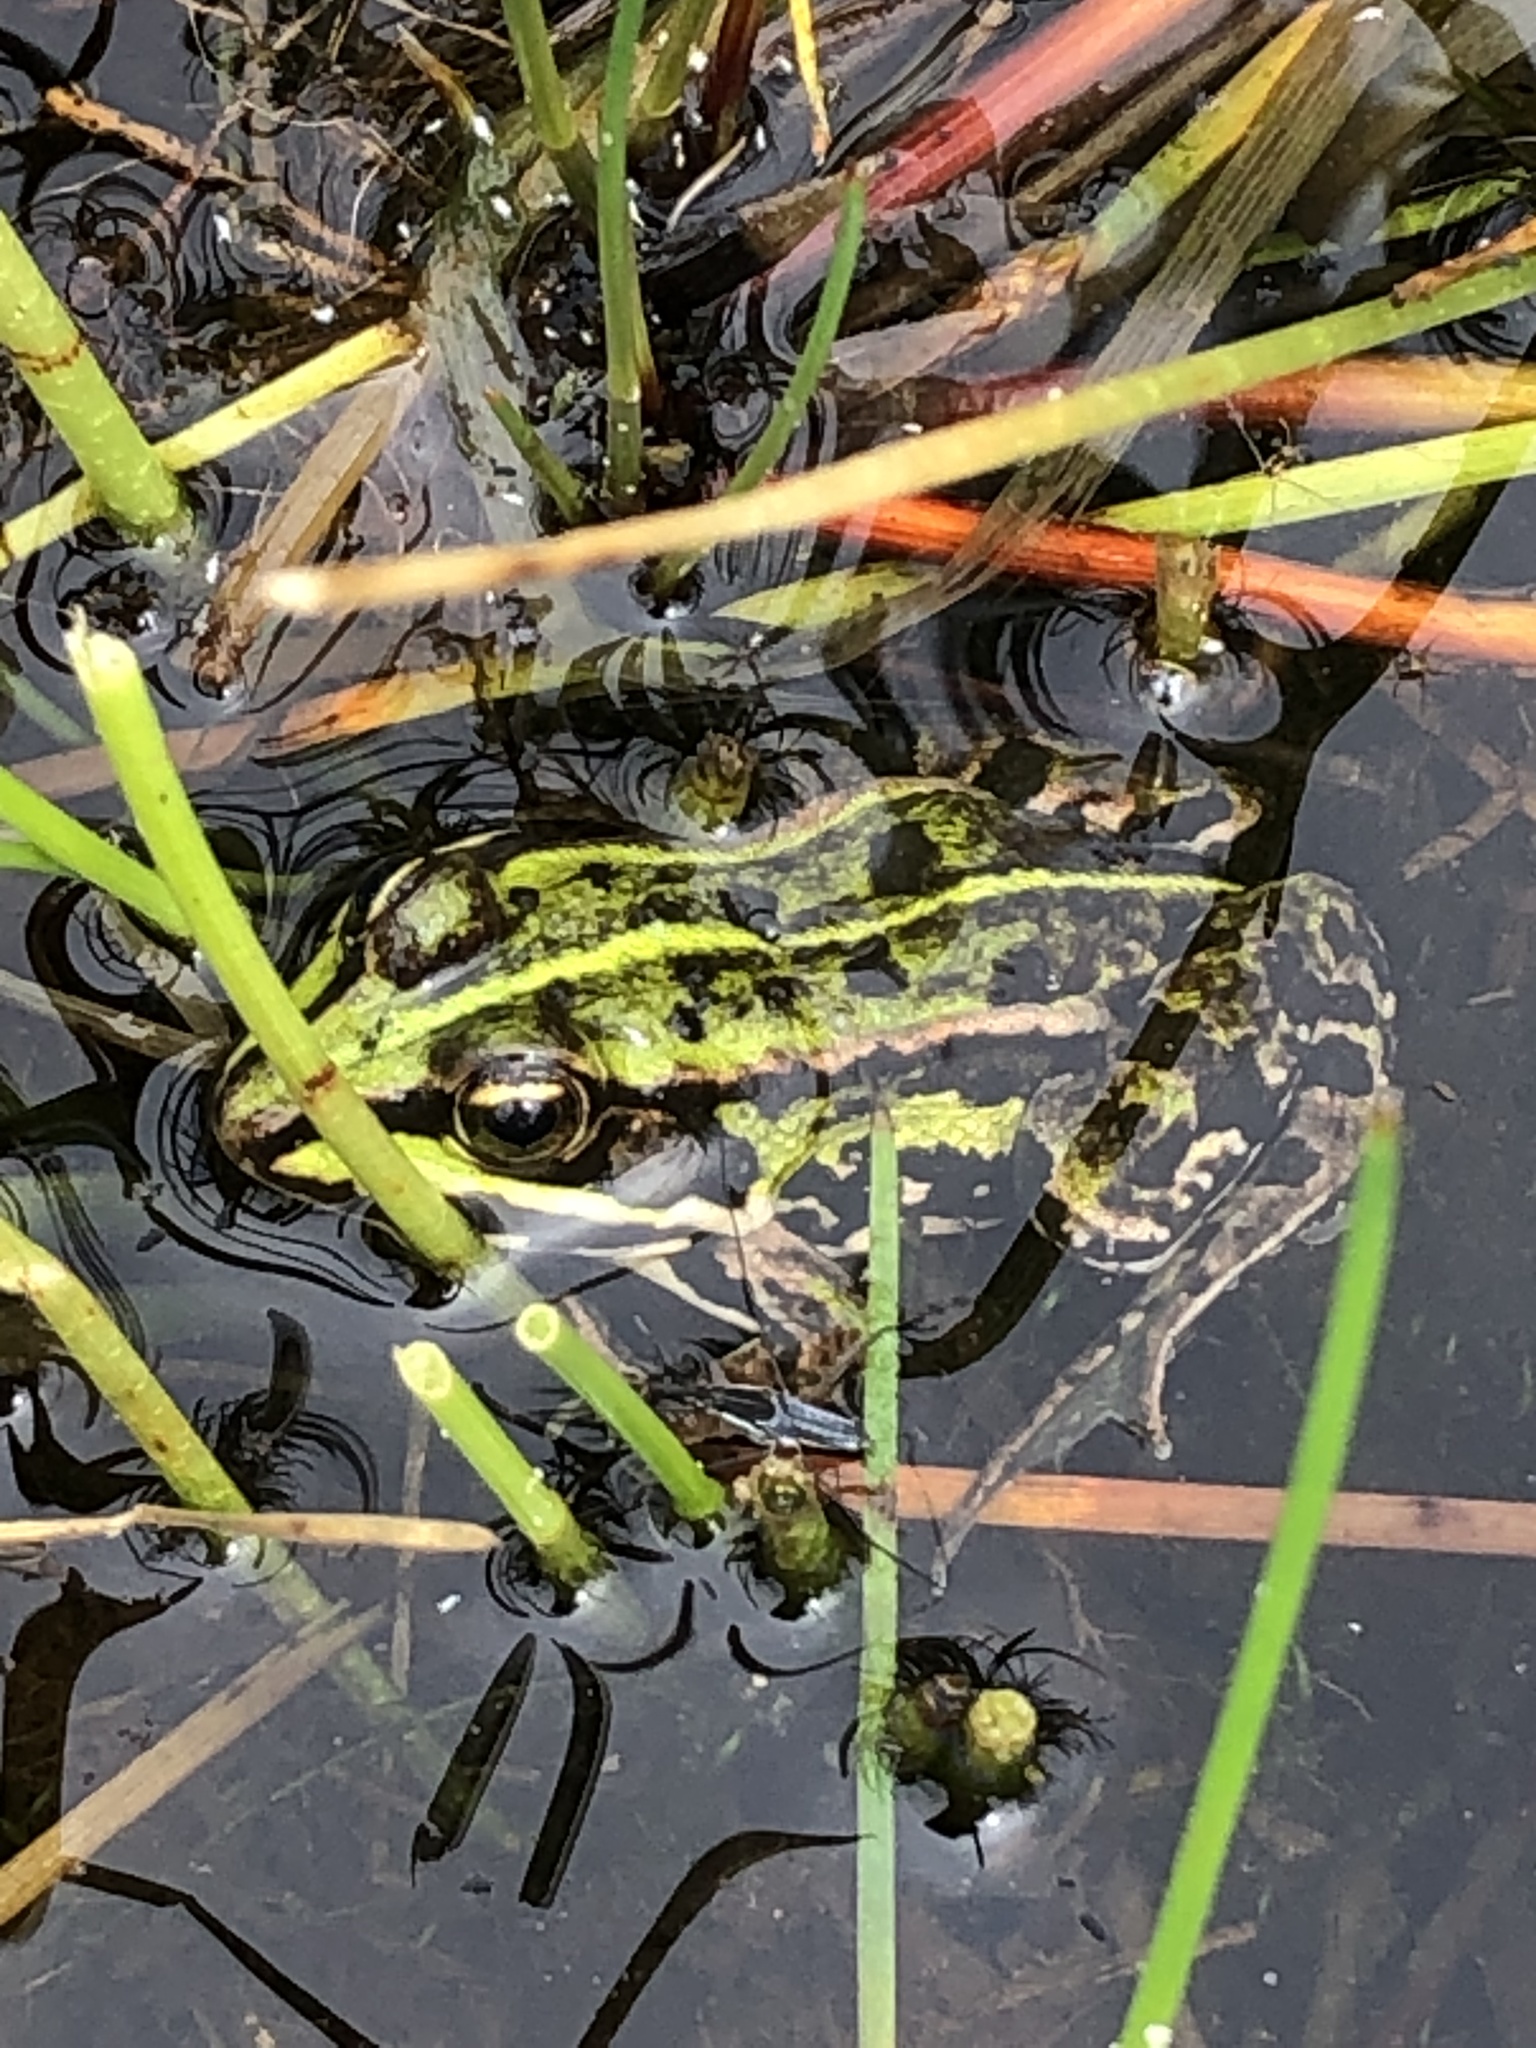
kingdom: Animalia
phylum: Chordata
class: Amphibia
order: Anura
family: Ranidae
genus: Pelophylax
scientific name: Pelophylax lessonae
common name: Pool frog
